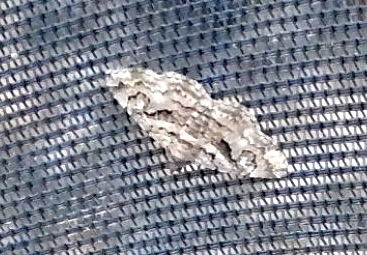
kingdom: Animalia
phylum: Arthropoda
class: Insecta
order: Lepidoptera
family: Erebidae
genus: Toxonprucha
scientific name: Toxonprucha
